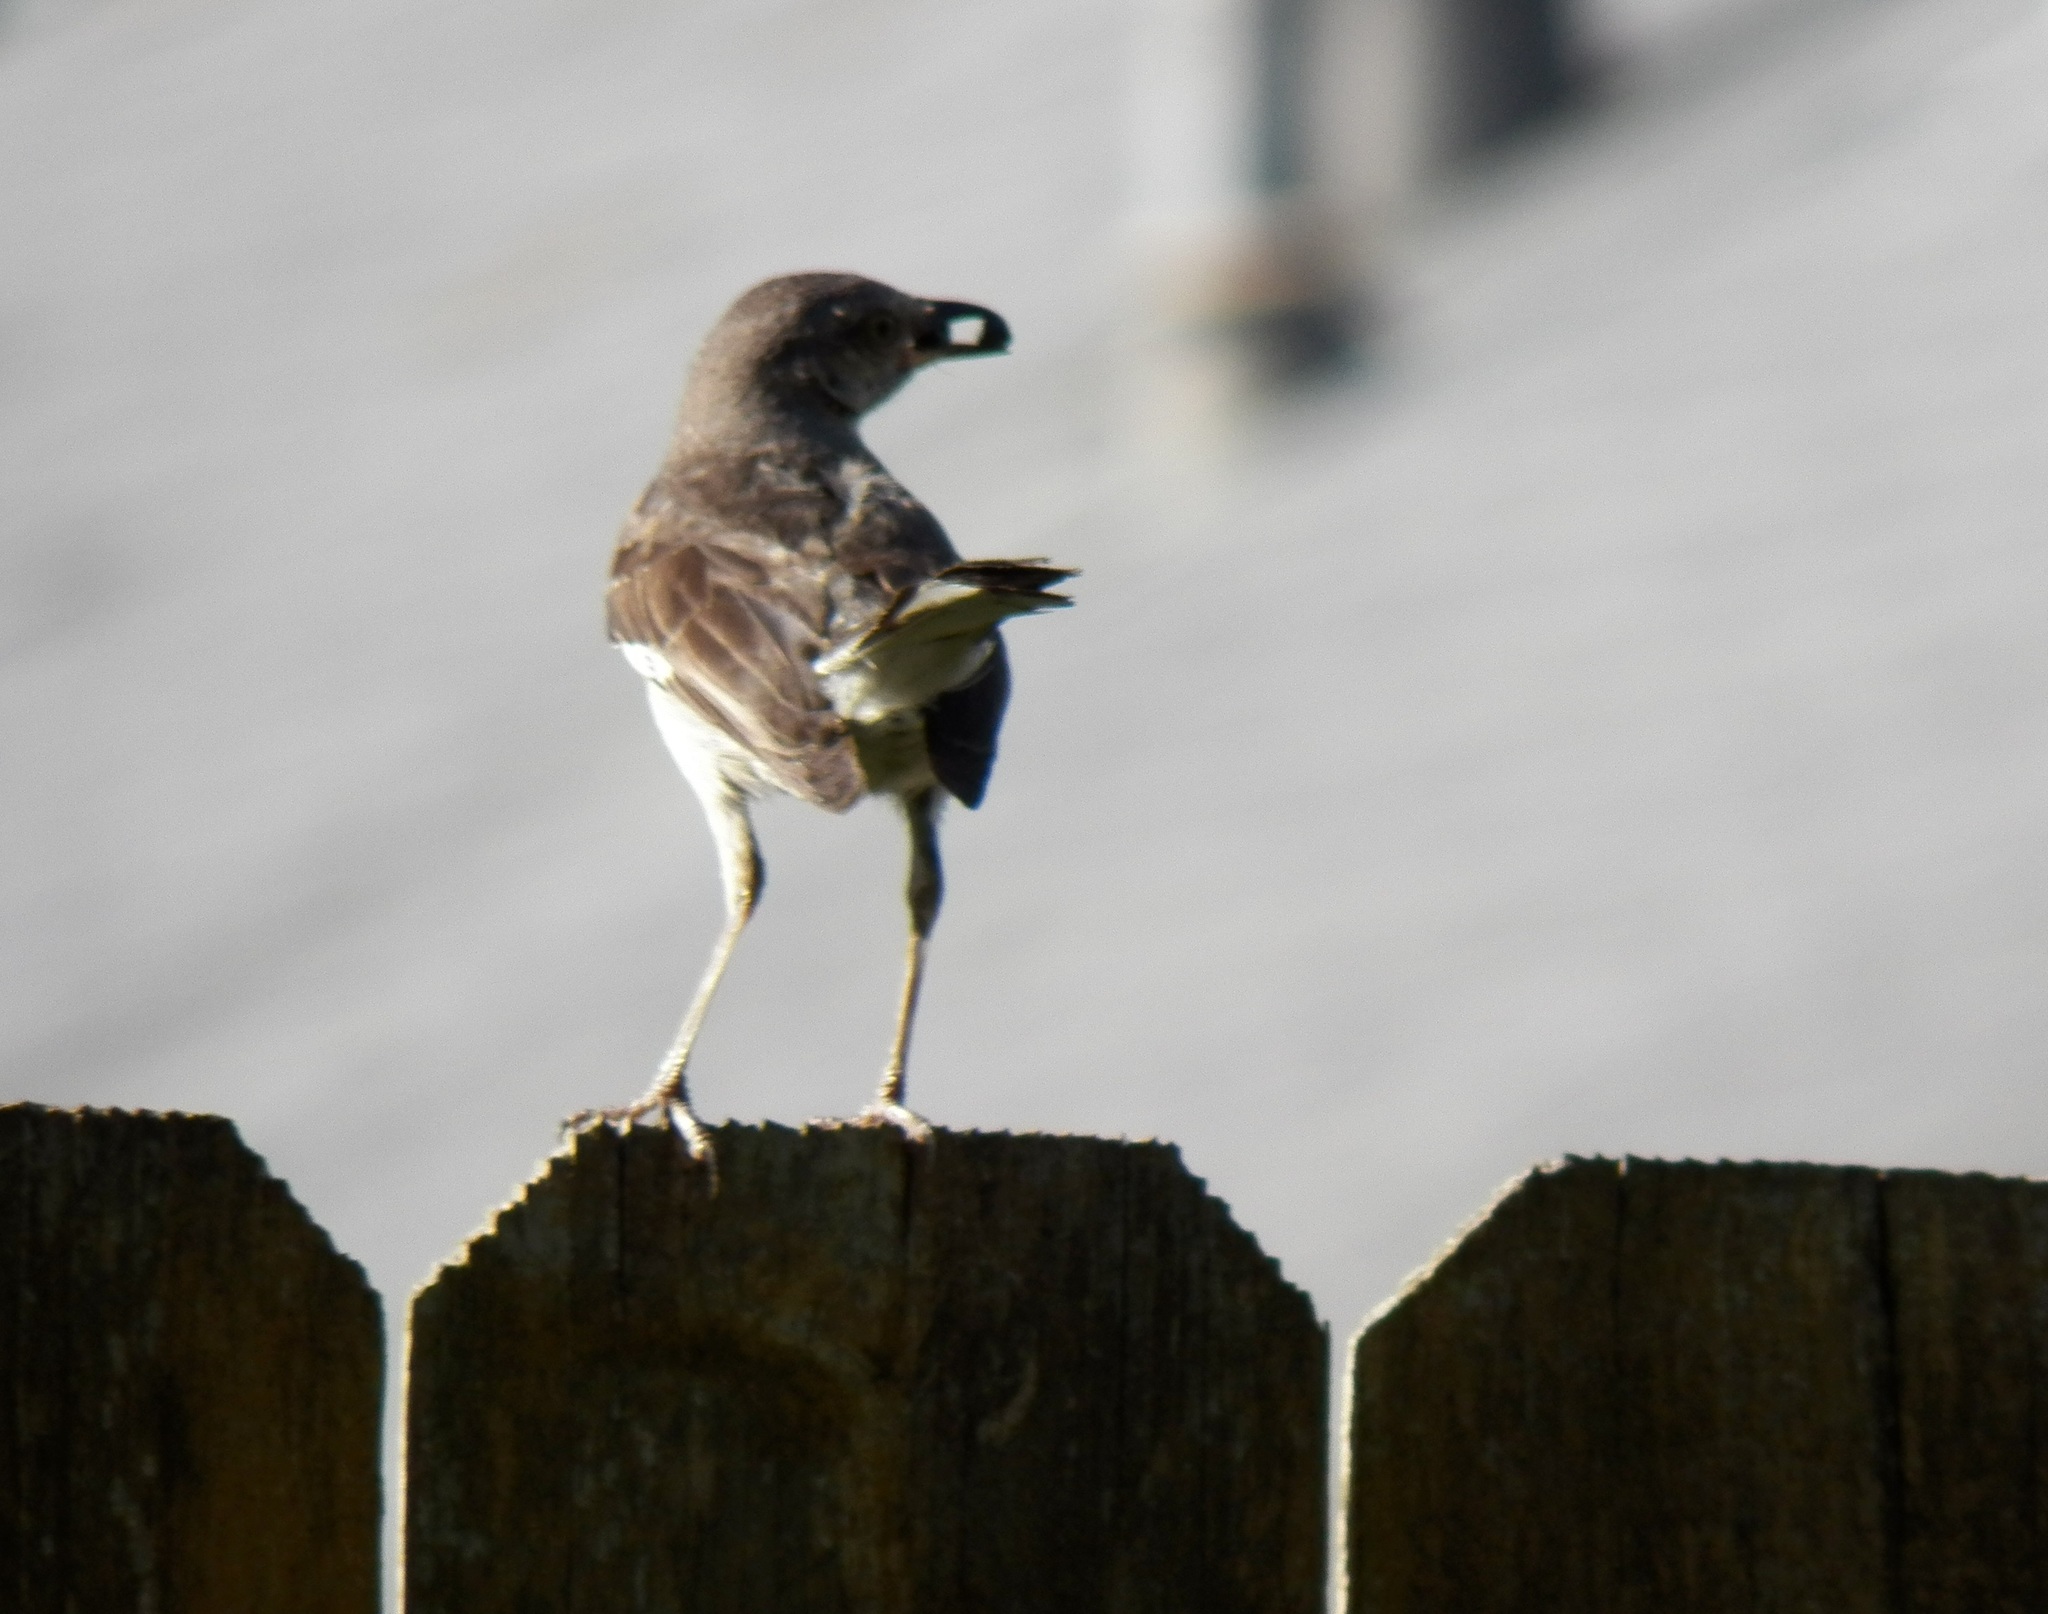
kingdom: Animalia
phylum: Chordata
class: Aves
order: Passeriformes
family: Mimidae
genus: Mimus
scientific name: Mimus polyglottos
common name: Northern mockingbird
